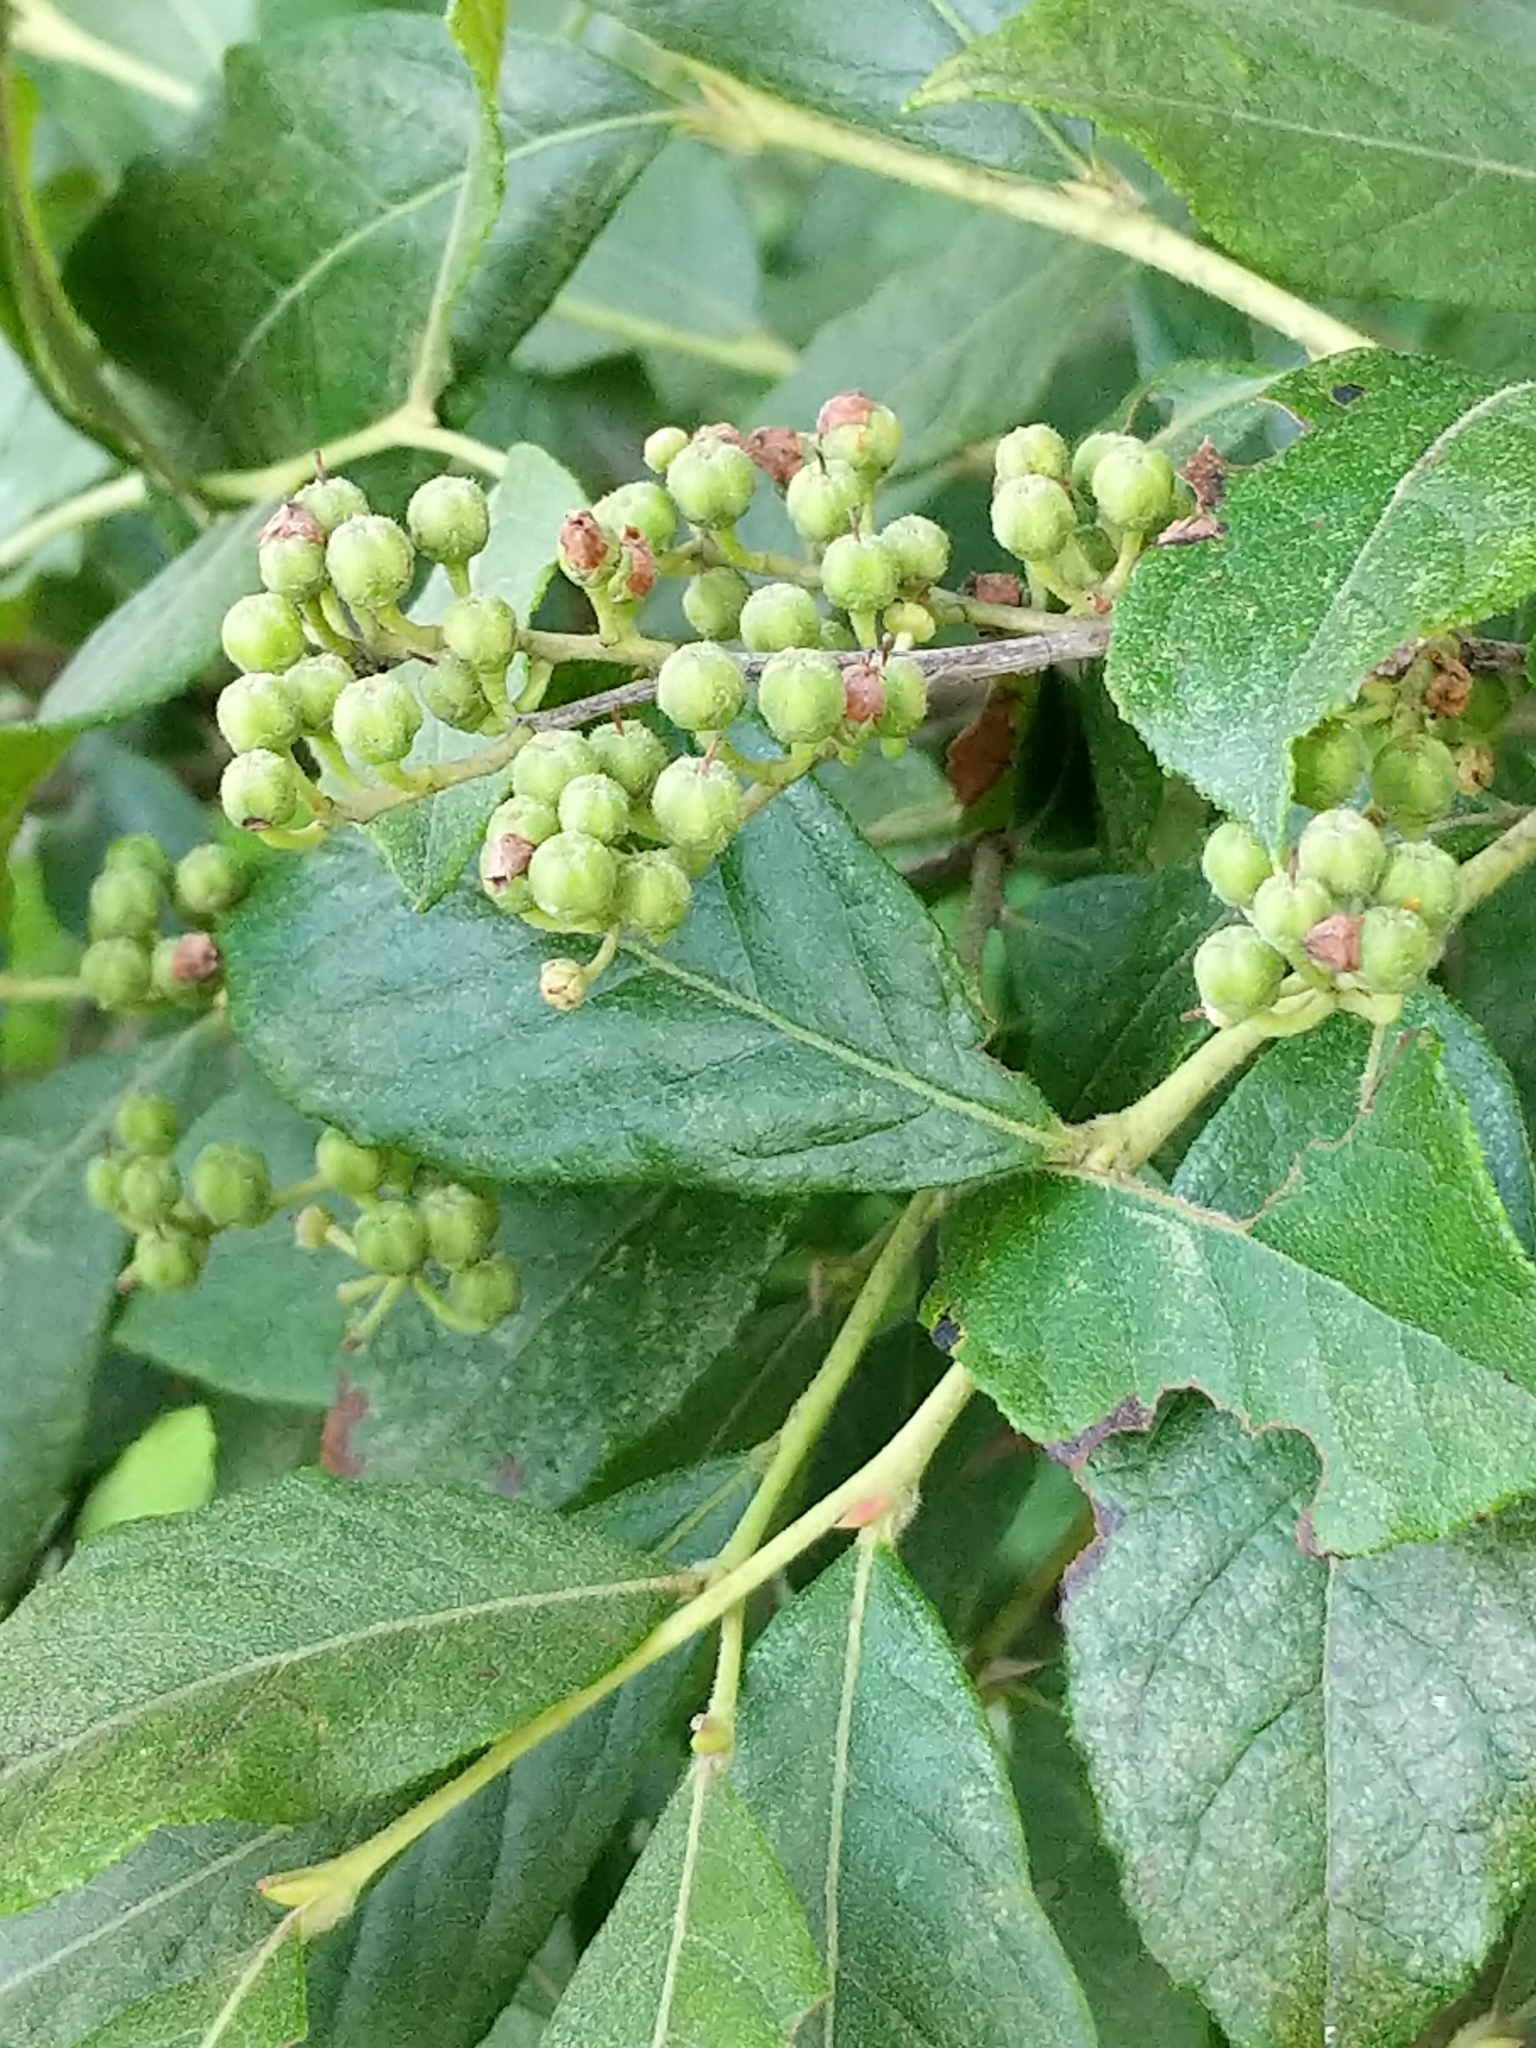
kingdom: Plantae
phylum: Tracheophyta
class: Magnoliopsida
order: Ericales
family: Ericaceae
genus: Lyonia
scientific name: Lyonia ligustrina
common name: Maleberry
